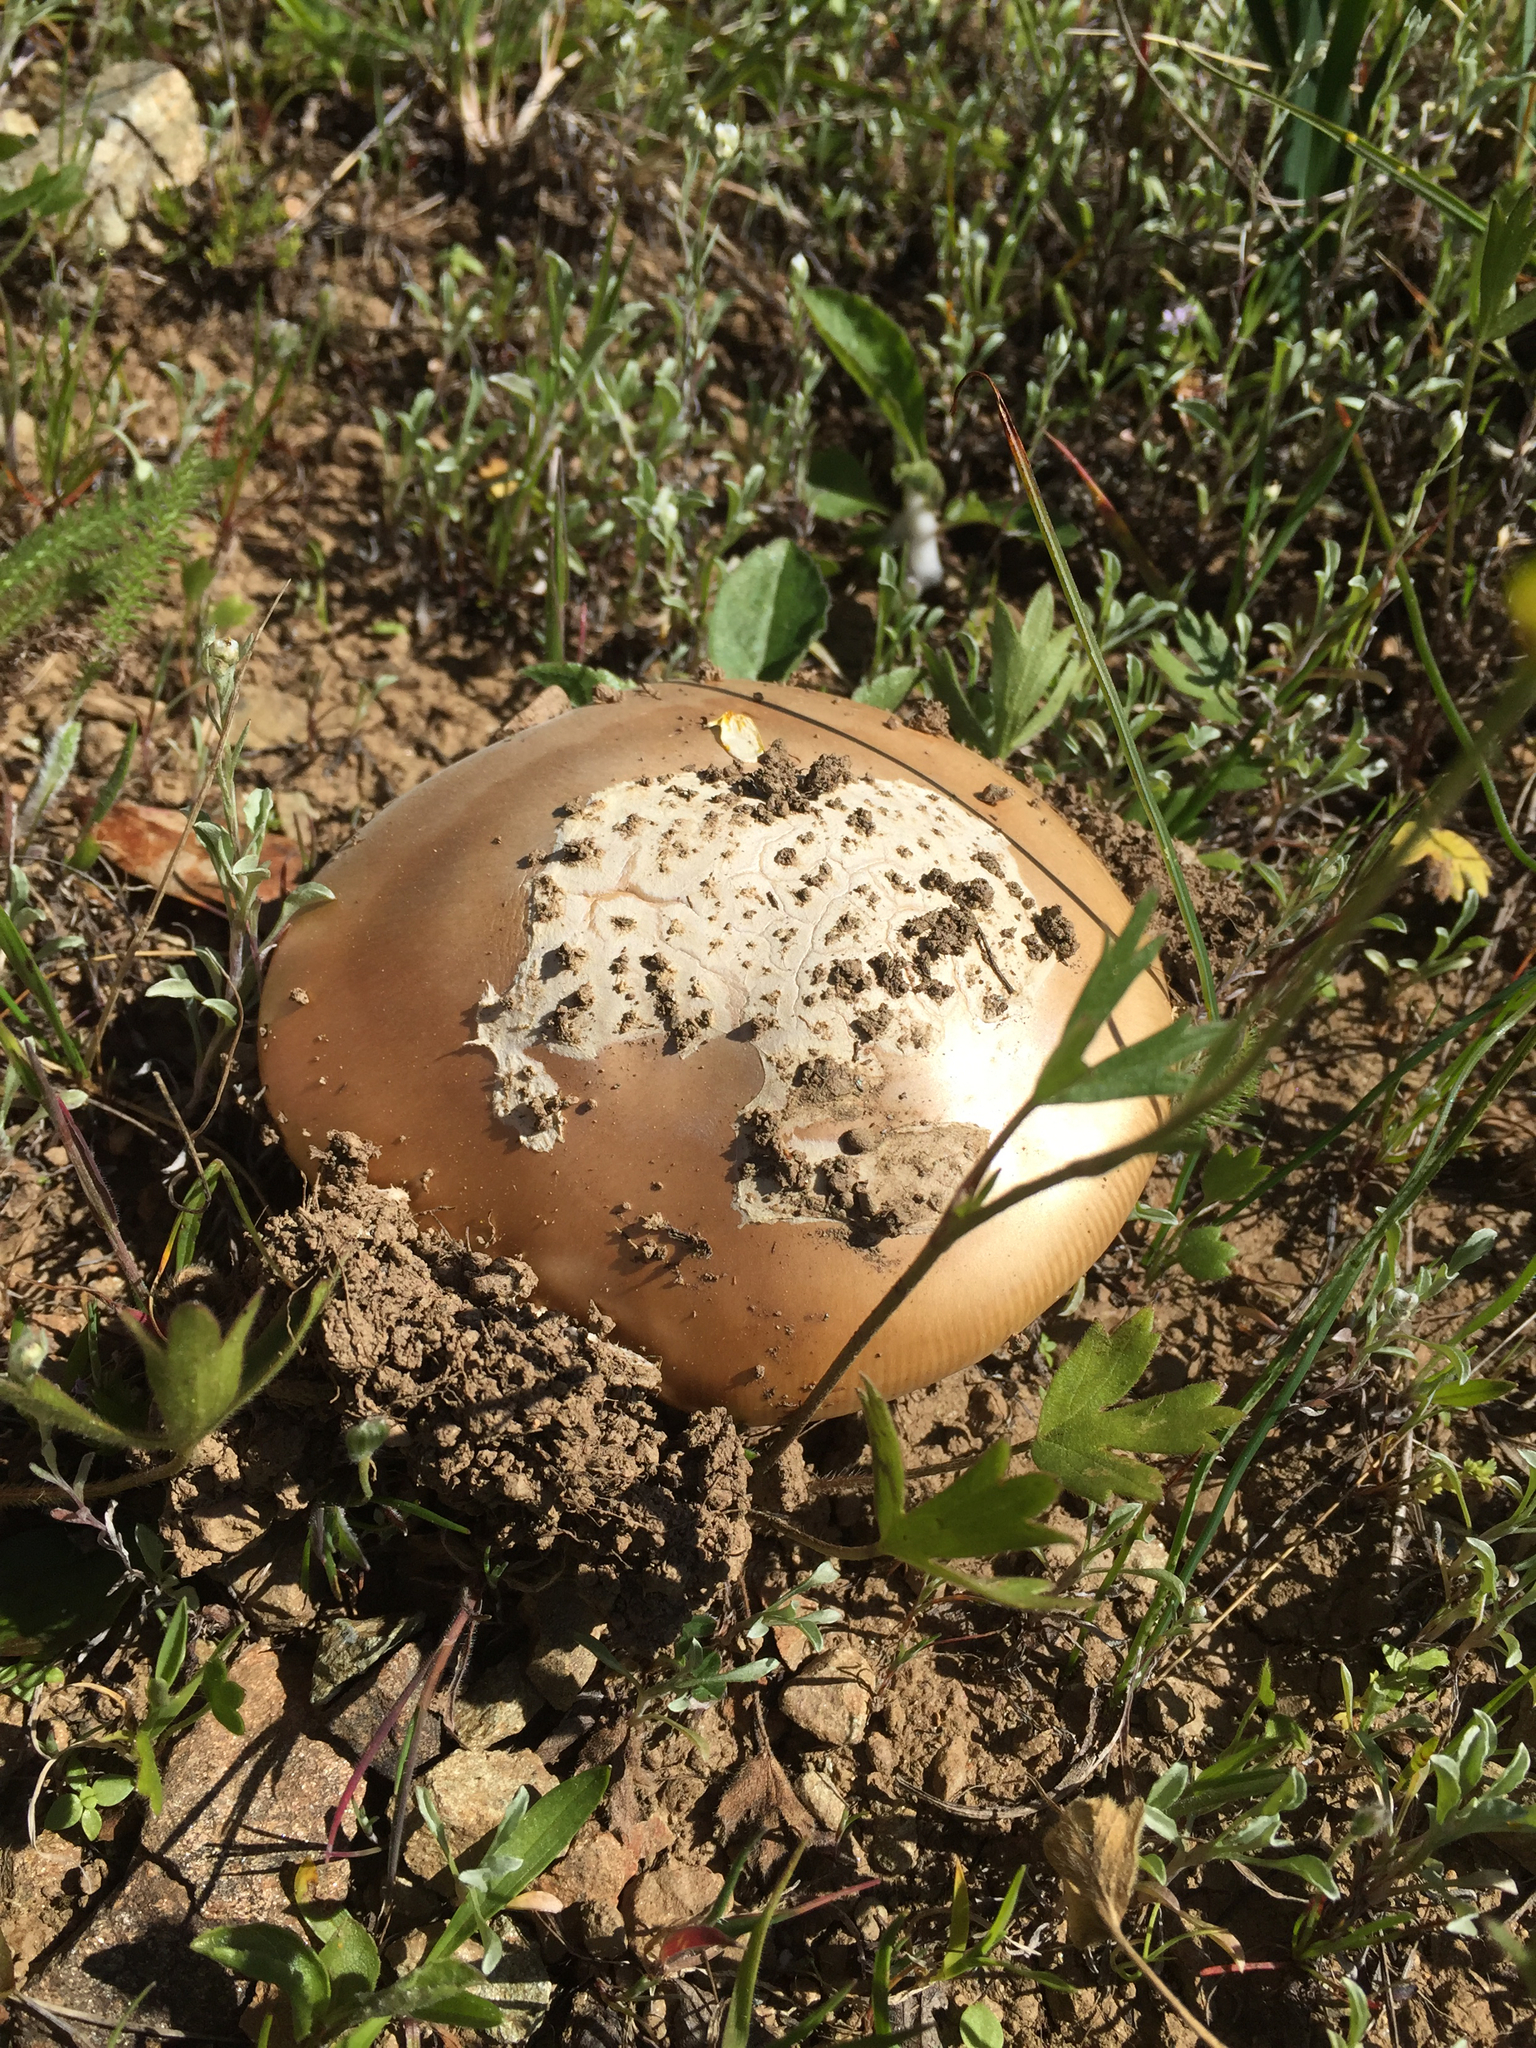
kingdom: Fungi
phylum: Basidiomycota
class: Agaricomycetes
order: Agaricales
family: Amanitaceae
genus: Amanita
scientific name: Amanita velosa
